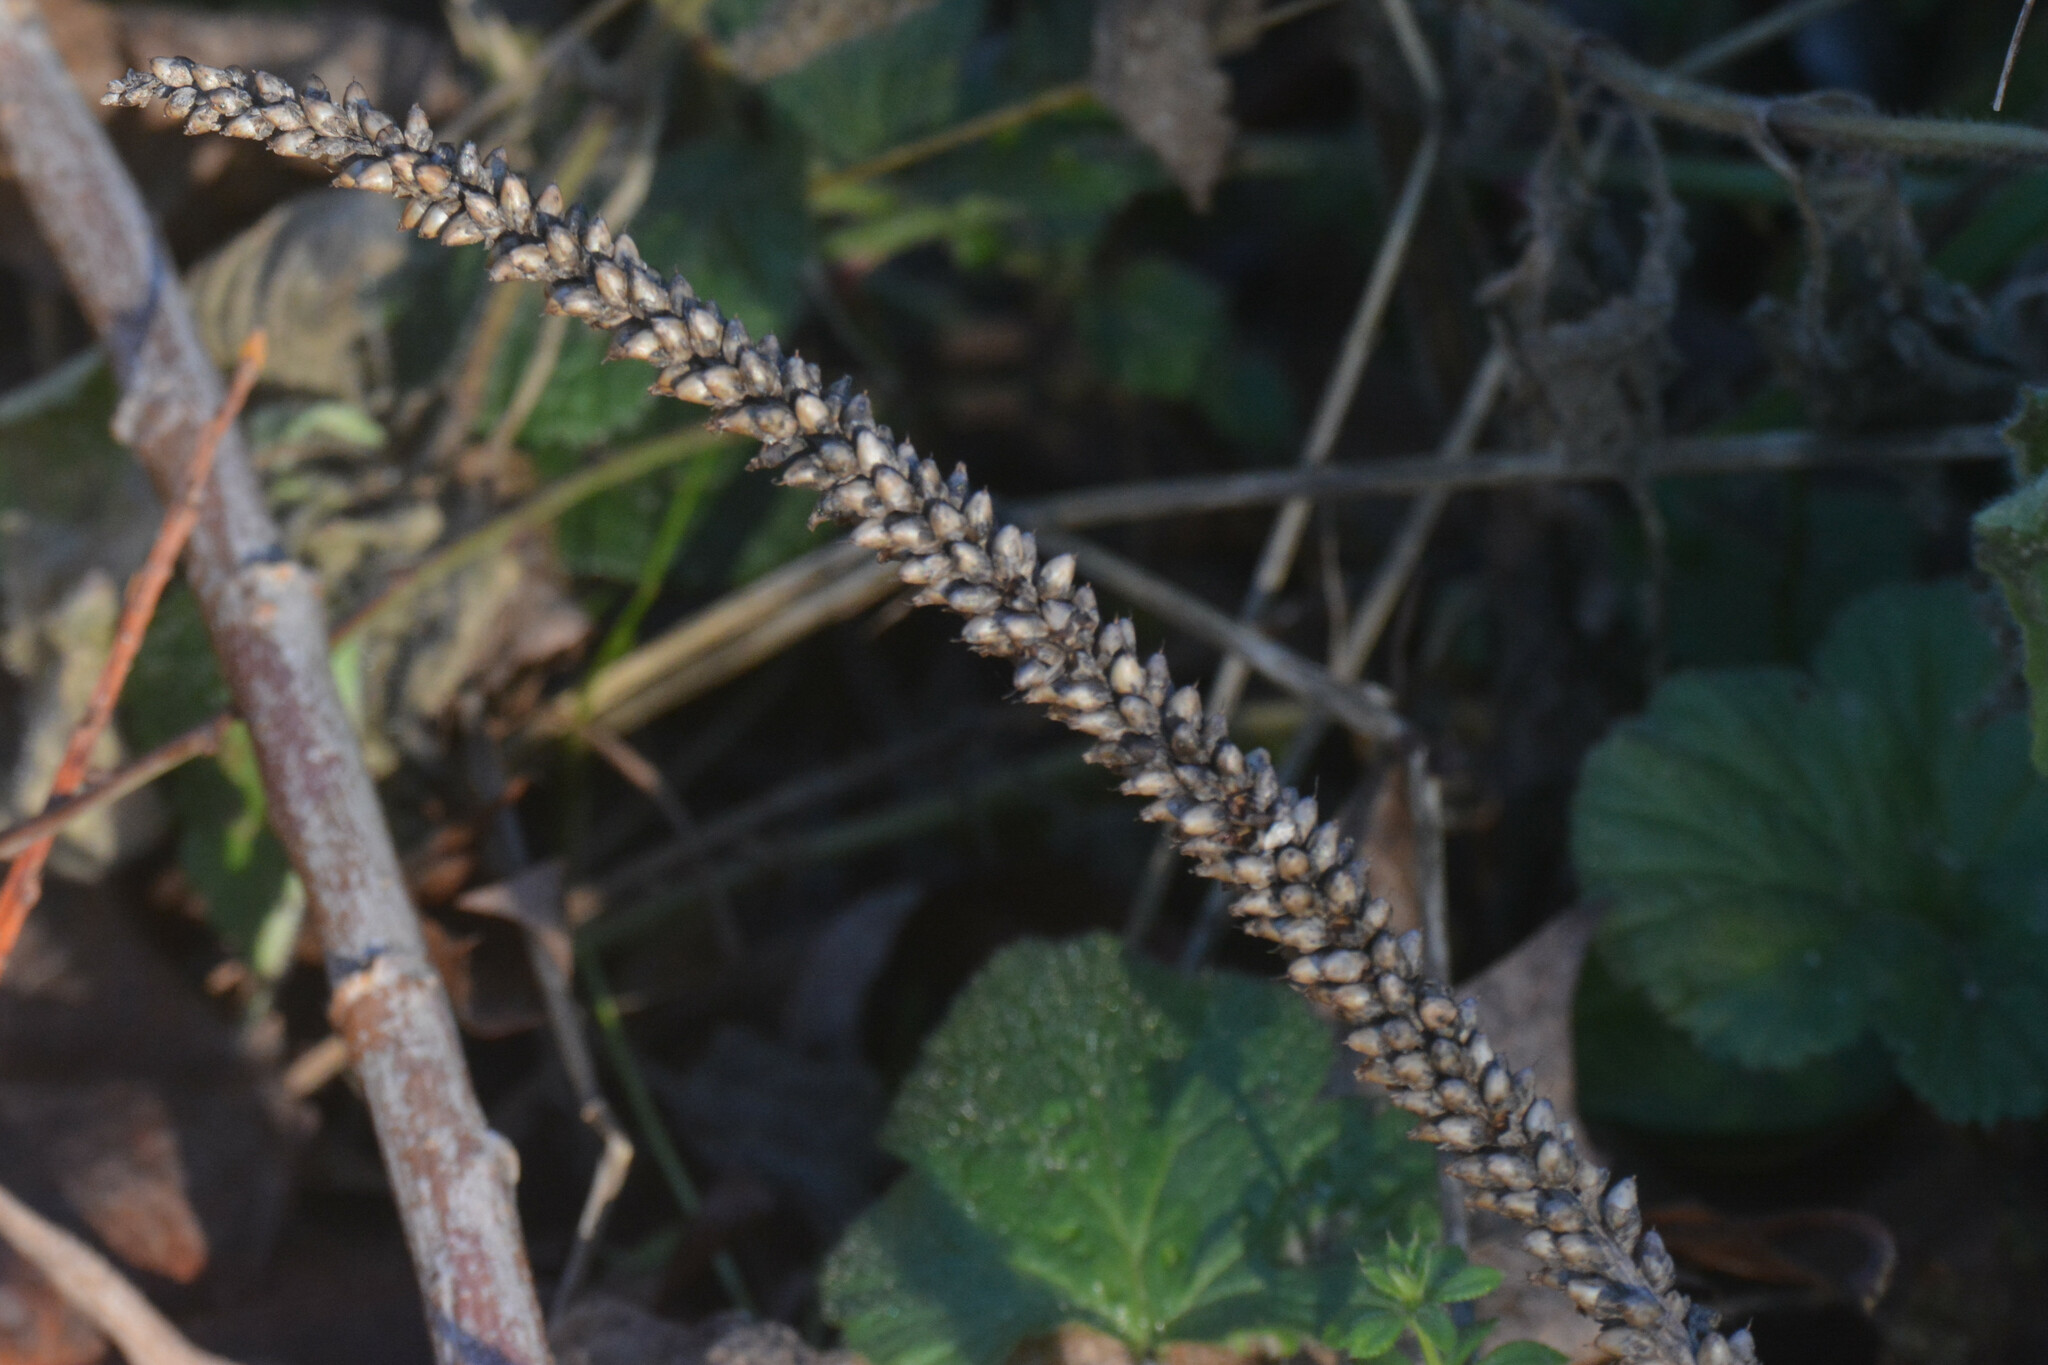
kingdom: Plantae
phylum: Tracheophyta
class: Magnoliopsida
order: Lamiales
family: Plantaginaceae
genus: Plantago
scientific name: Plantago major
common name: Common plantain
